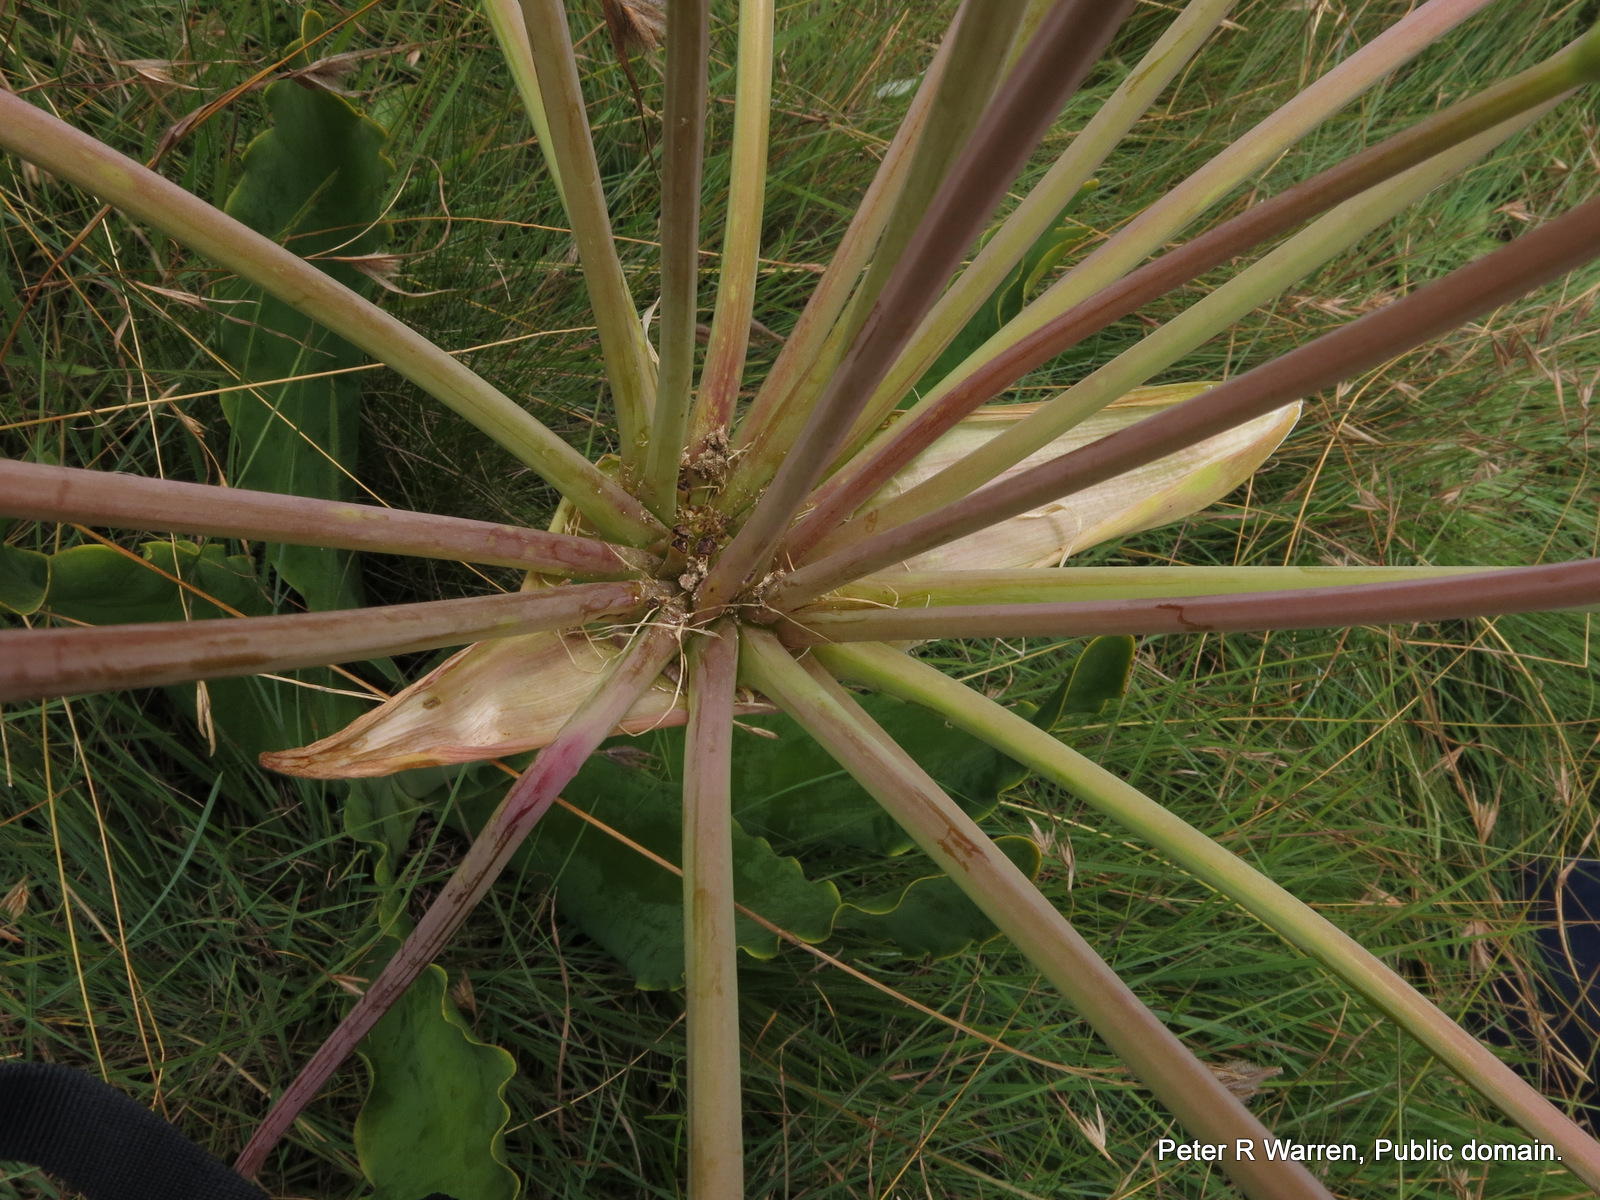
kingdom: Plantae
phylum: Tracheophyta
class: Liliopsida
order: Asparagales
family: Amaryllidaceae
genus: Brunsvigia
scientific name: Brunsvigia undulata
